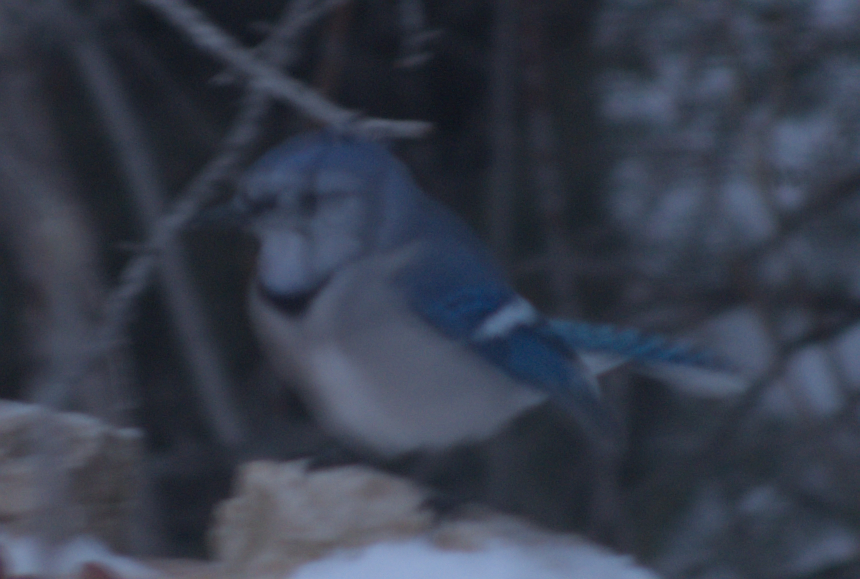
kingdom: Animalia
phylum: Chordata
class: Aves
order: Passeriformes
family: Corvidae
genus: Cyanocitta
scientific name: Cyanocitta cristata
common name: Blue jay
